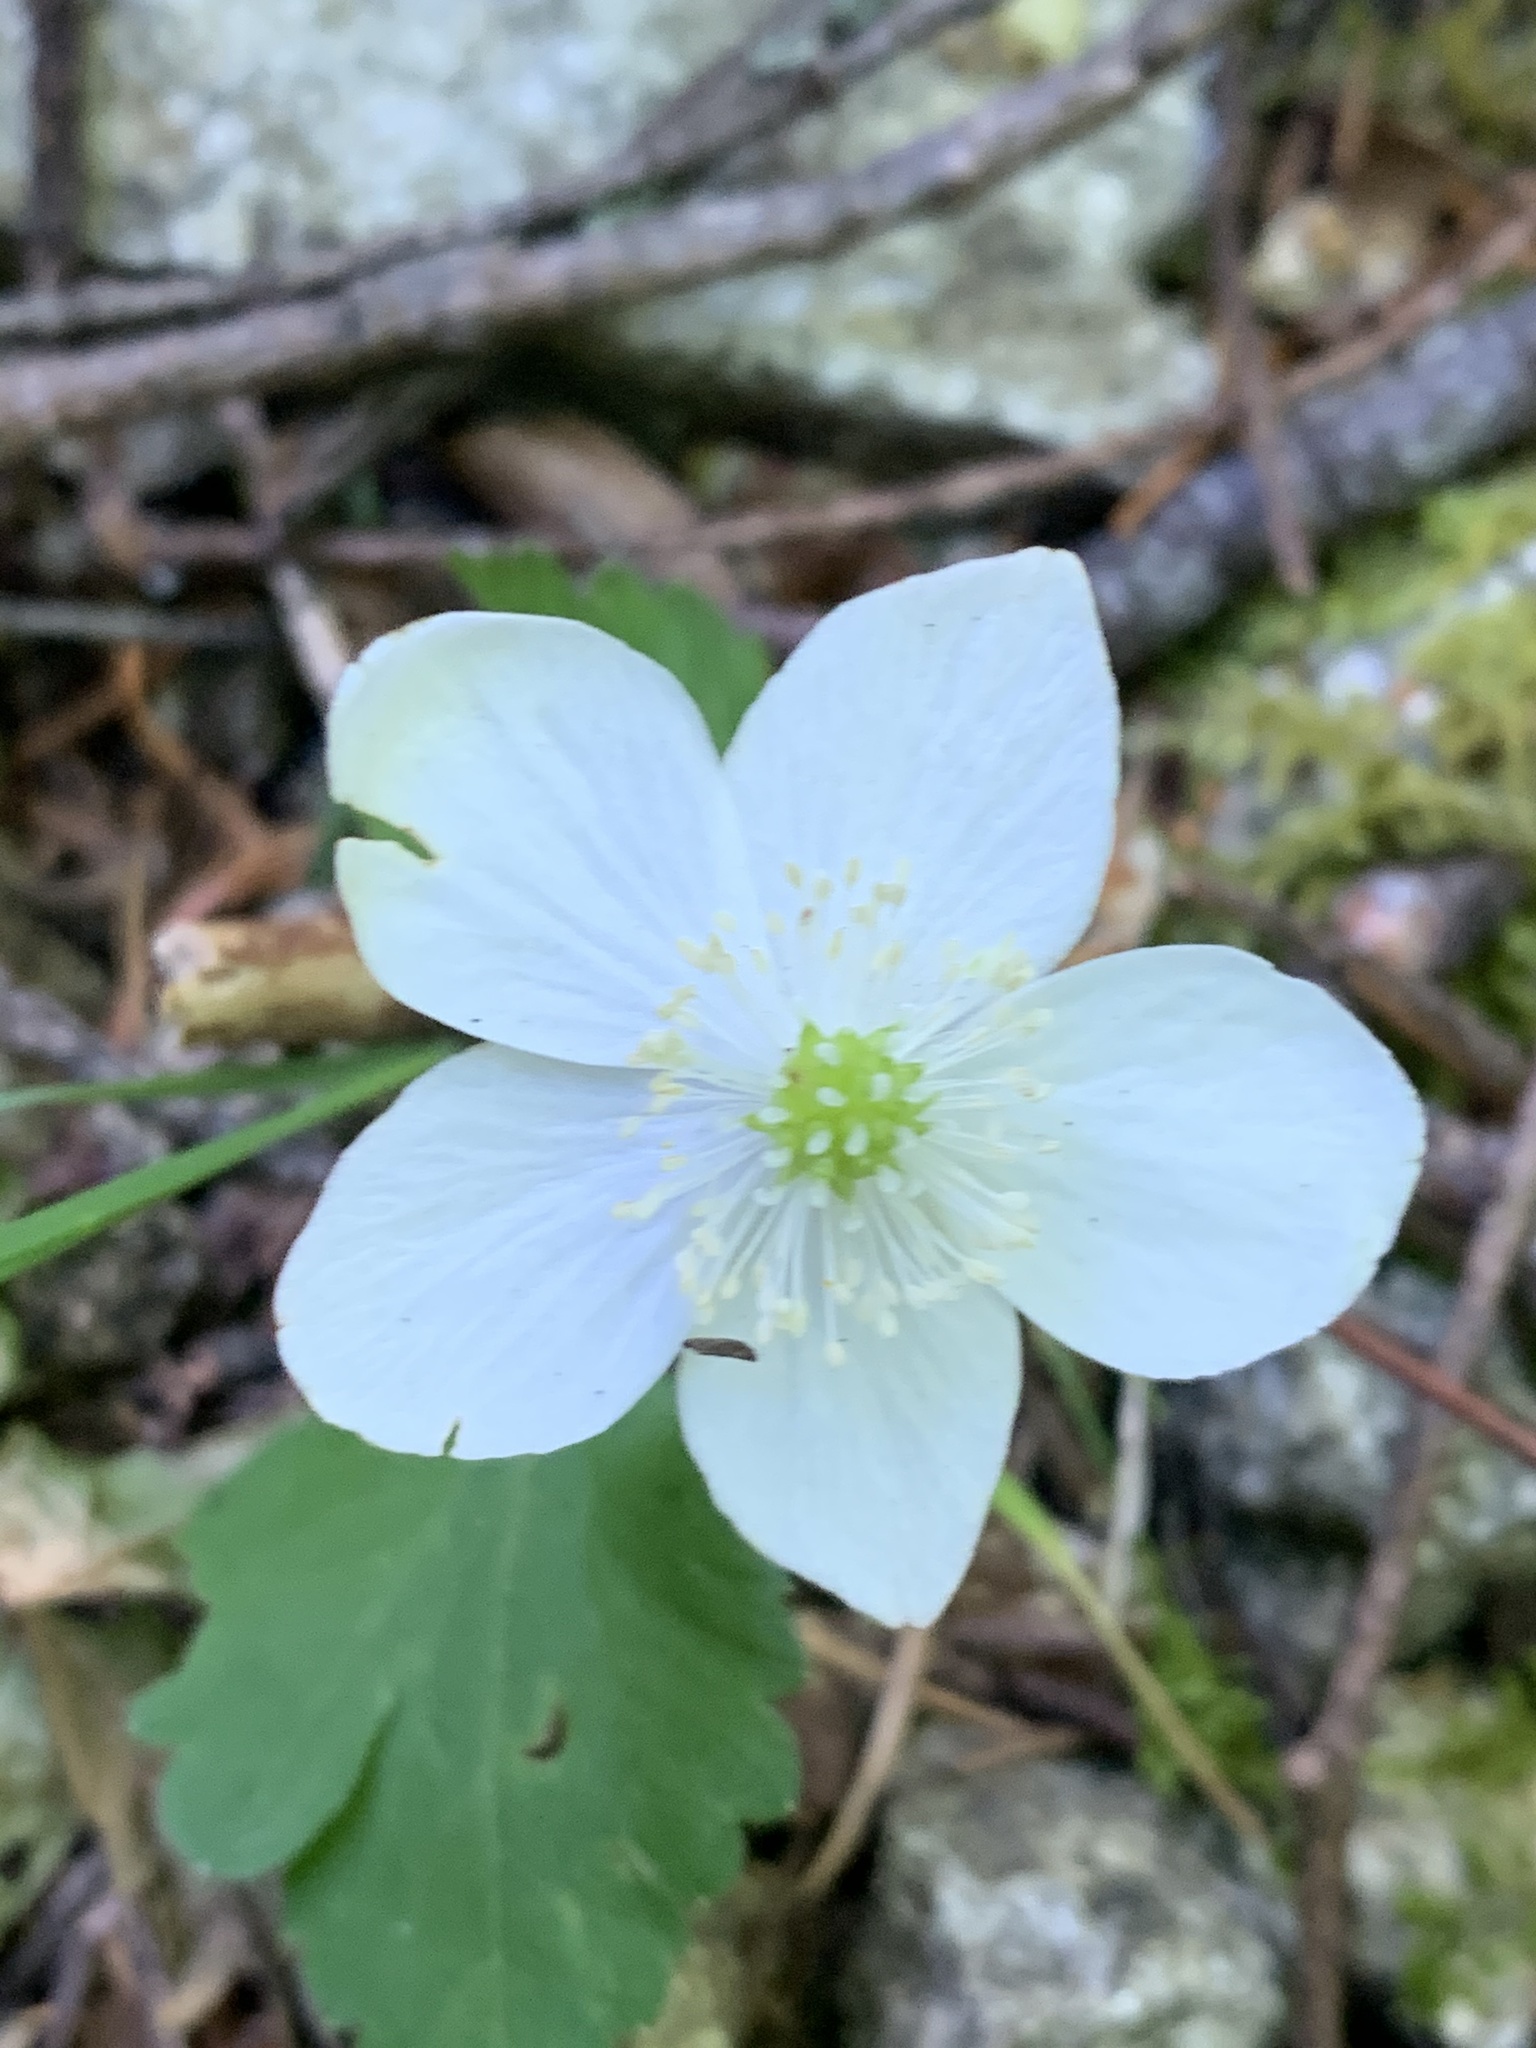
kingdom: Plantae
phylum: Tracheophyta
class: Magnoliopsida
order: Ranunculales
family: Ranunculaceae
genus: Anemonastrum
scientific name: Anemonastrum deltoideum
